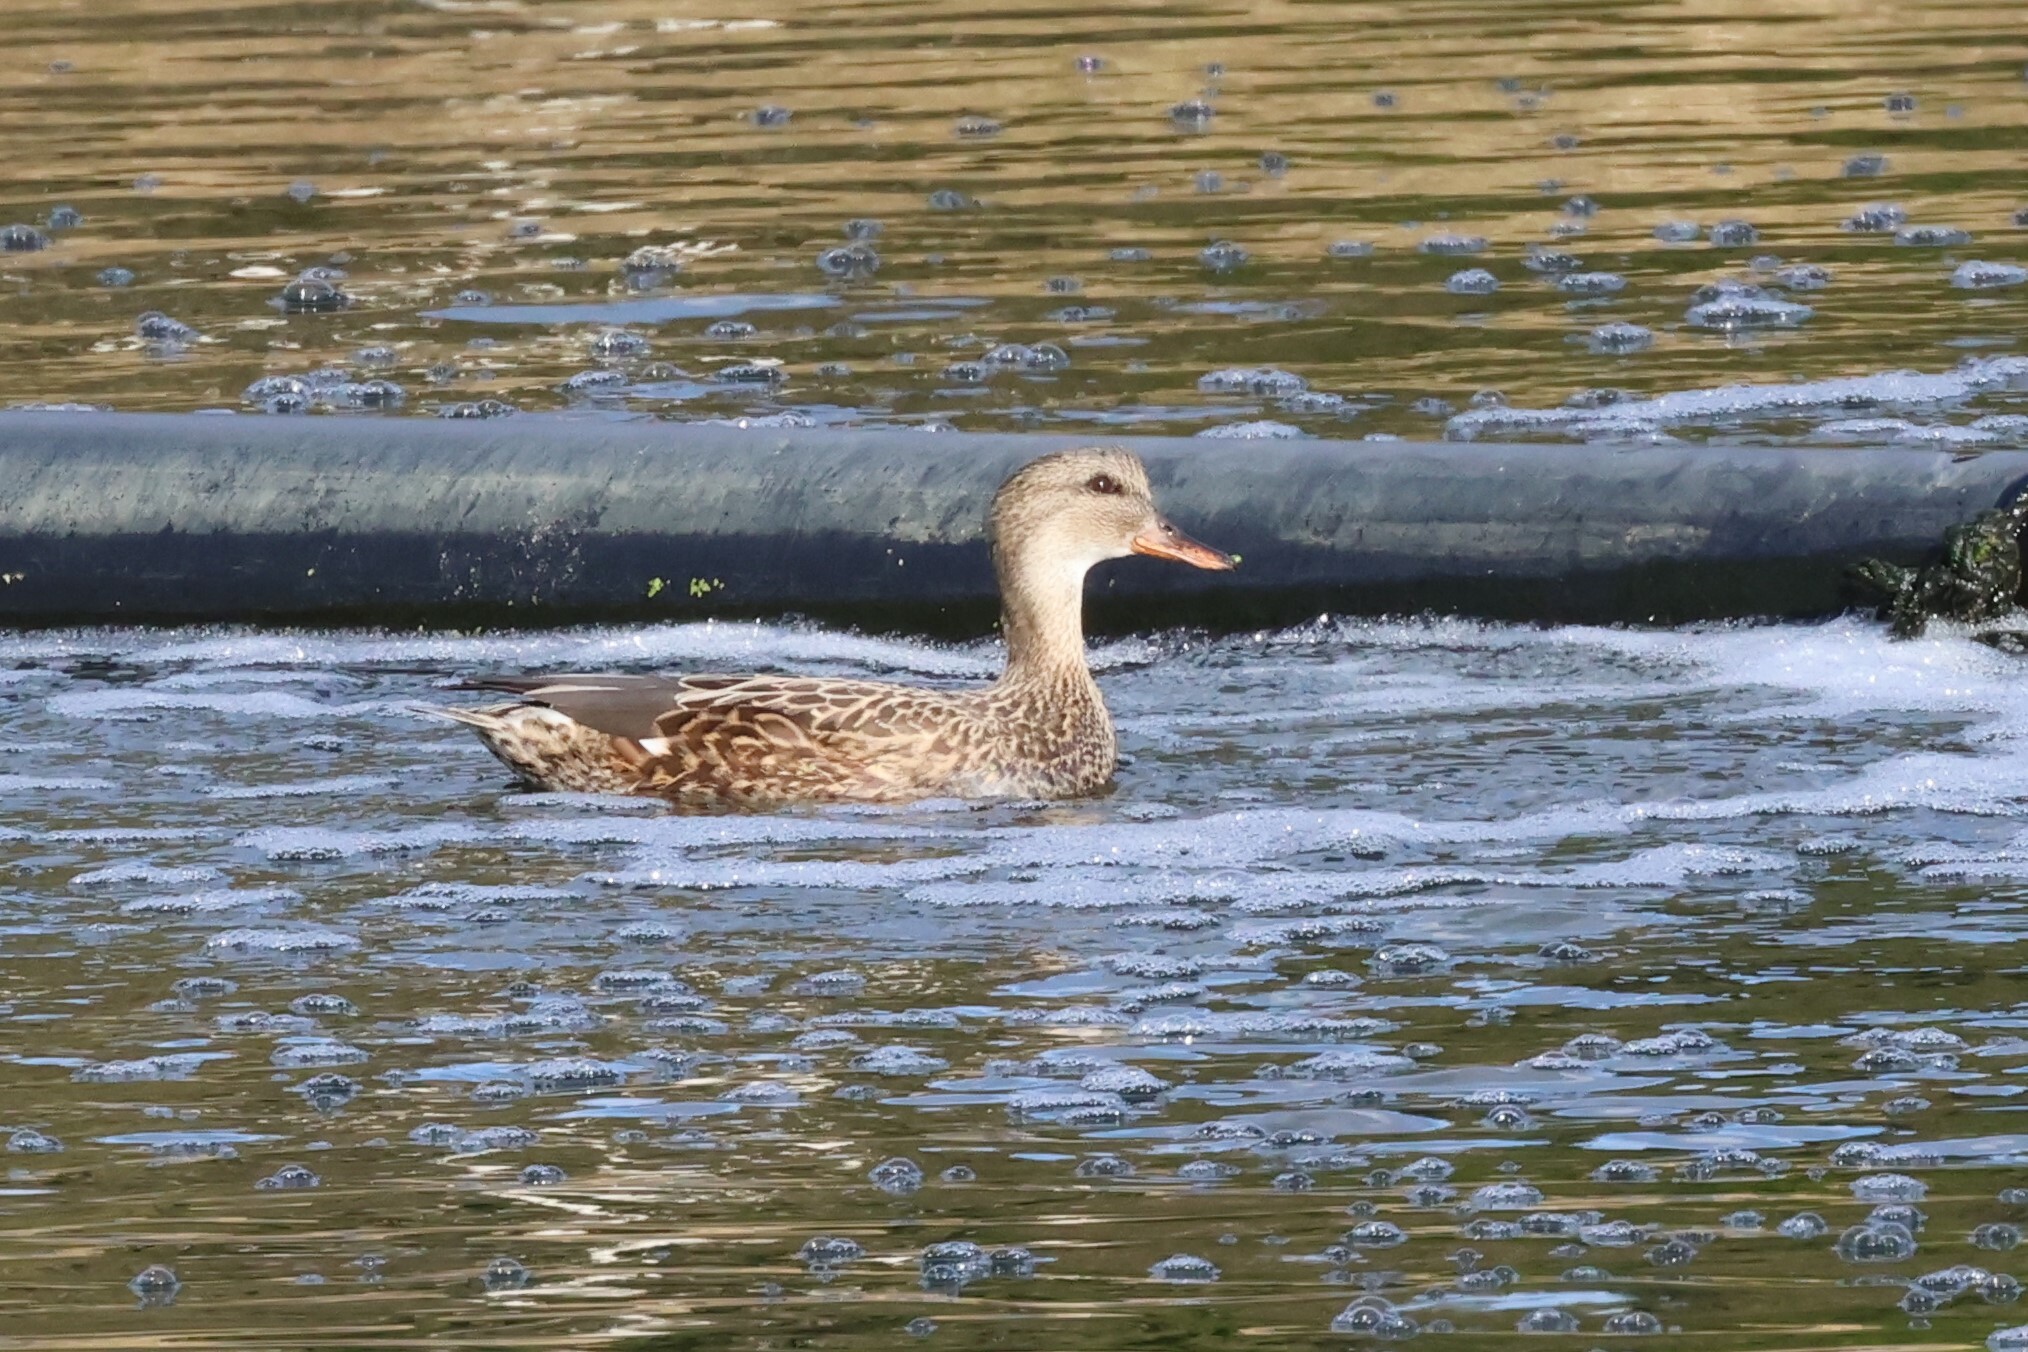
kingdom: Animalia
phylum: Chordata
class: Aves
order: Anseriformes
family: Anatidae
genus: Mareca
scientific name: Mareca strepera
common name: Gadwall
